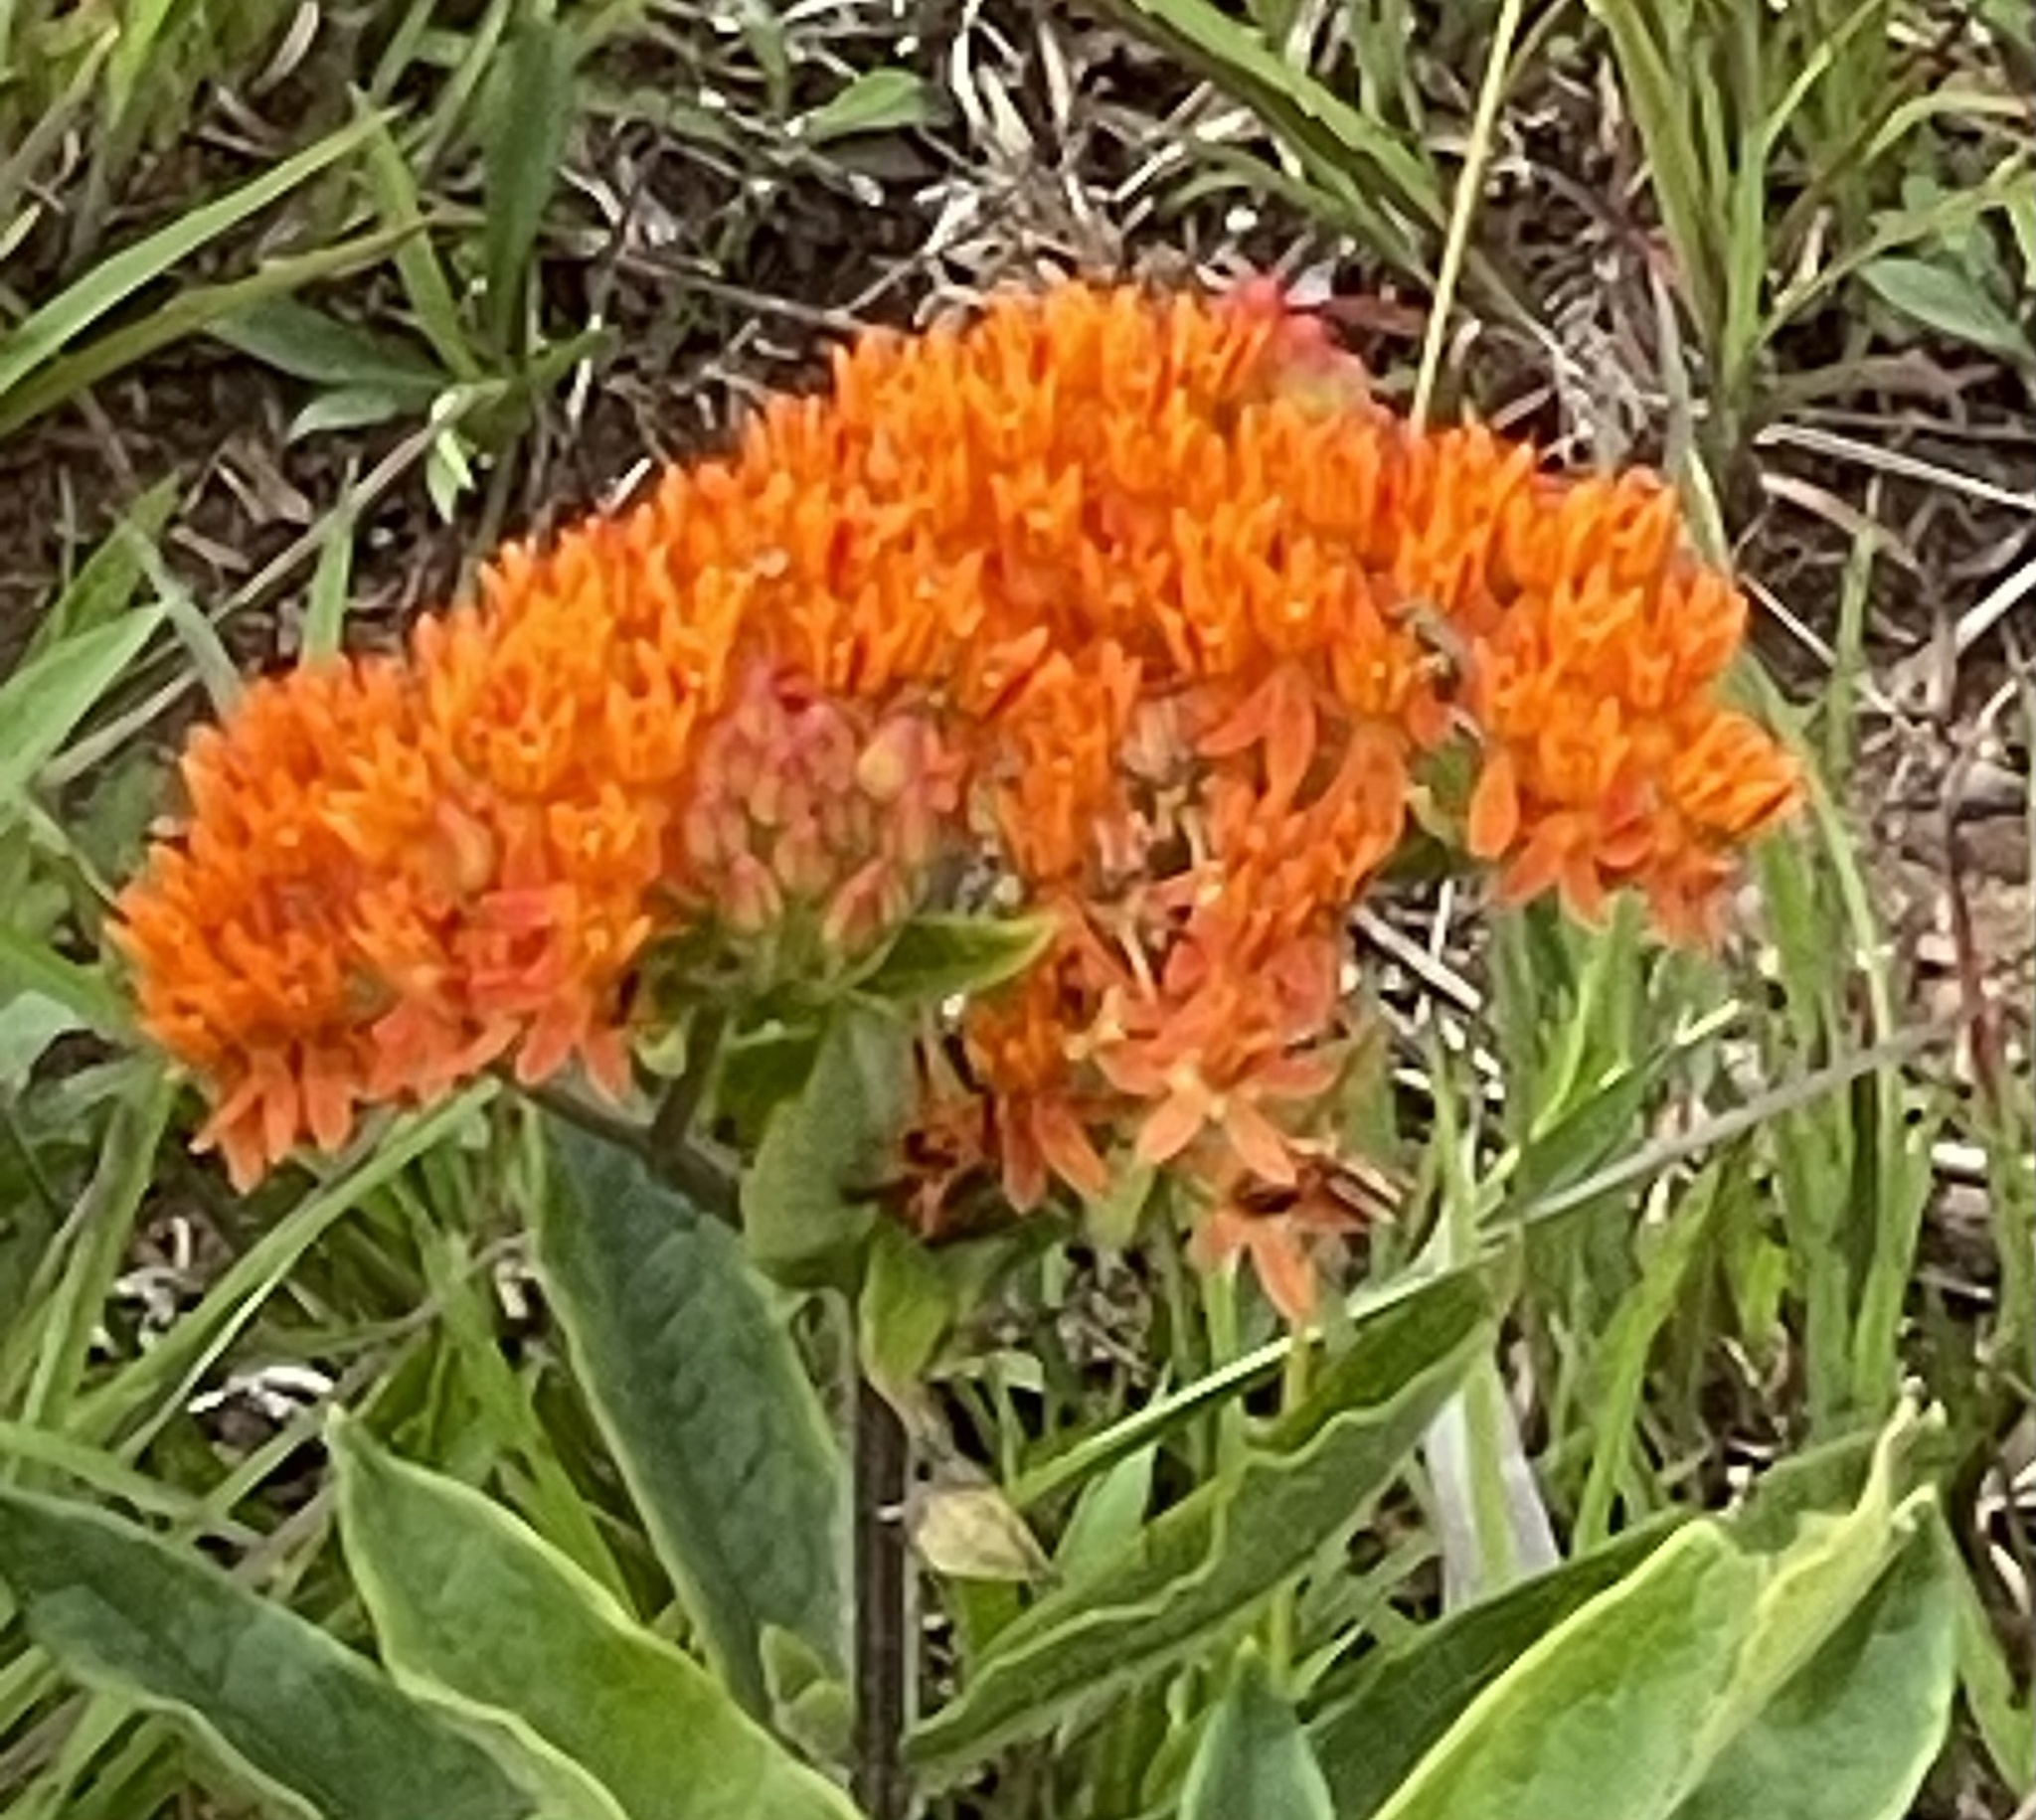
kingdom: Plantae
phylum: Tracheophyta
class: Magnoliopsida
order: Gentianales
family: Apocynaceae
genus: Asclepias
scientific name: Asclepias tuberosa
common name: Butterfly milkweed
